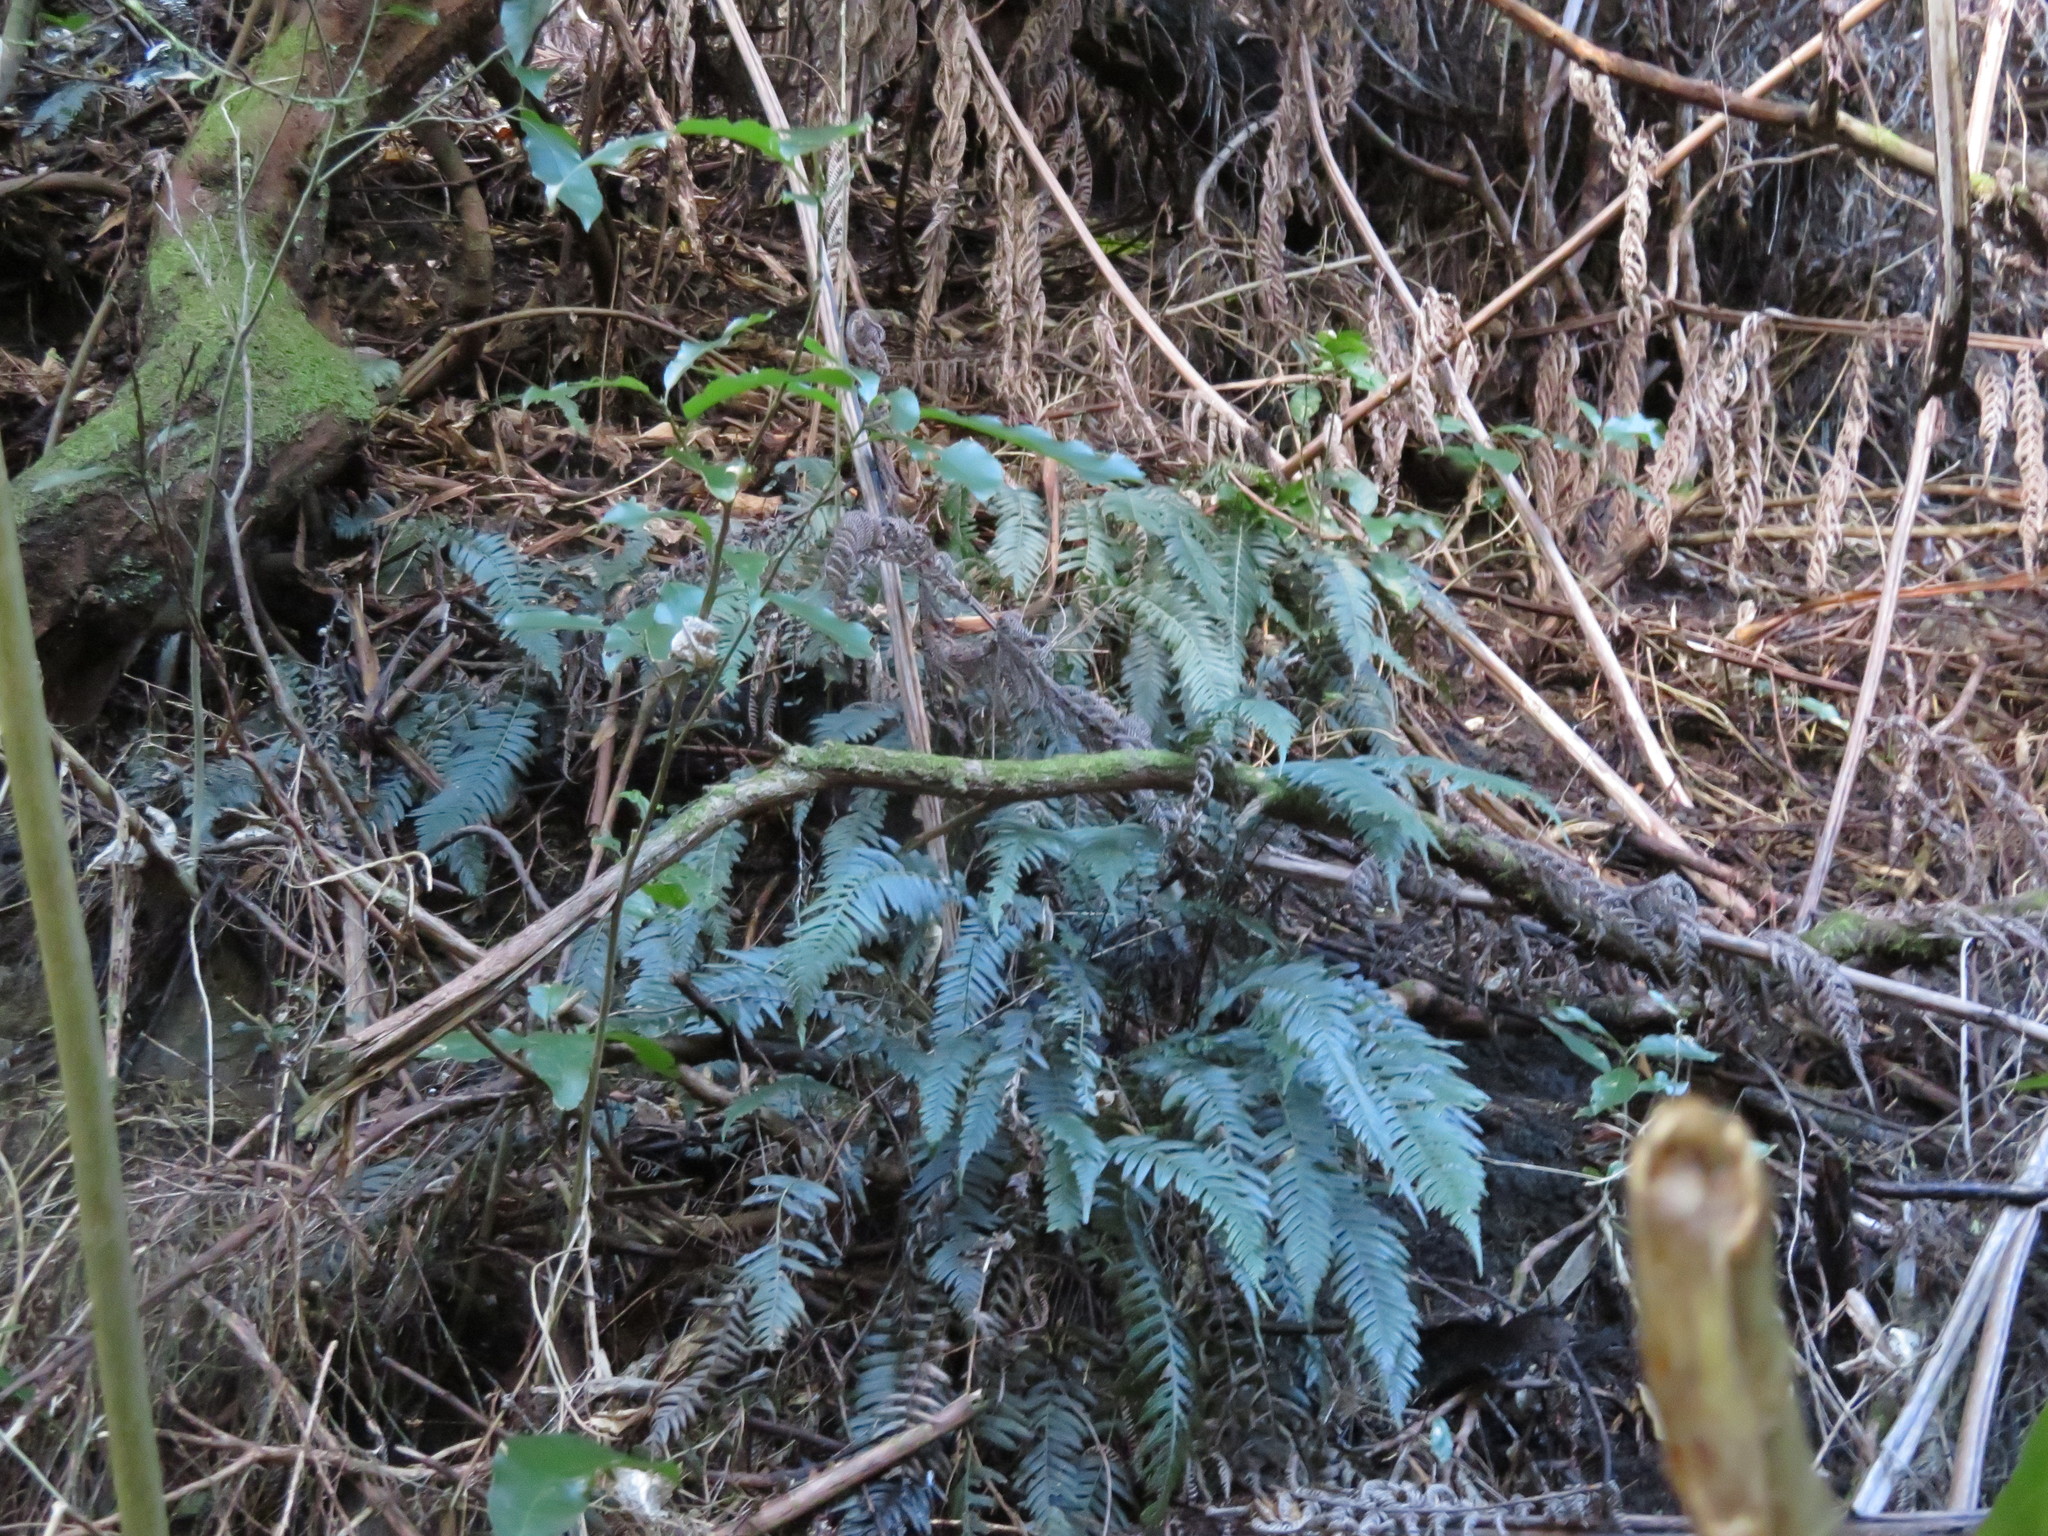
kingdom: Plantae
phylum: Tracheophyta
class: Polypodiopsida
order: Polypodiales
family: Blechnaceae
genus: Doodia
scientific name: Doodia australis
